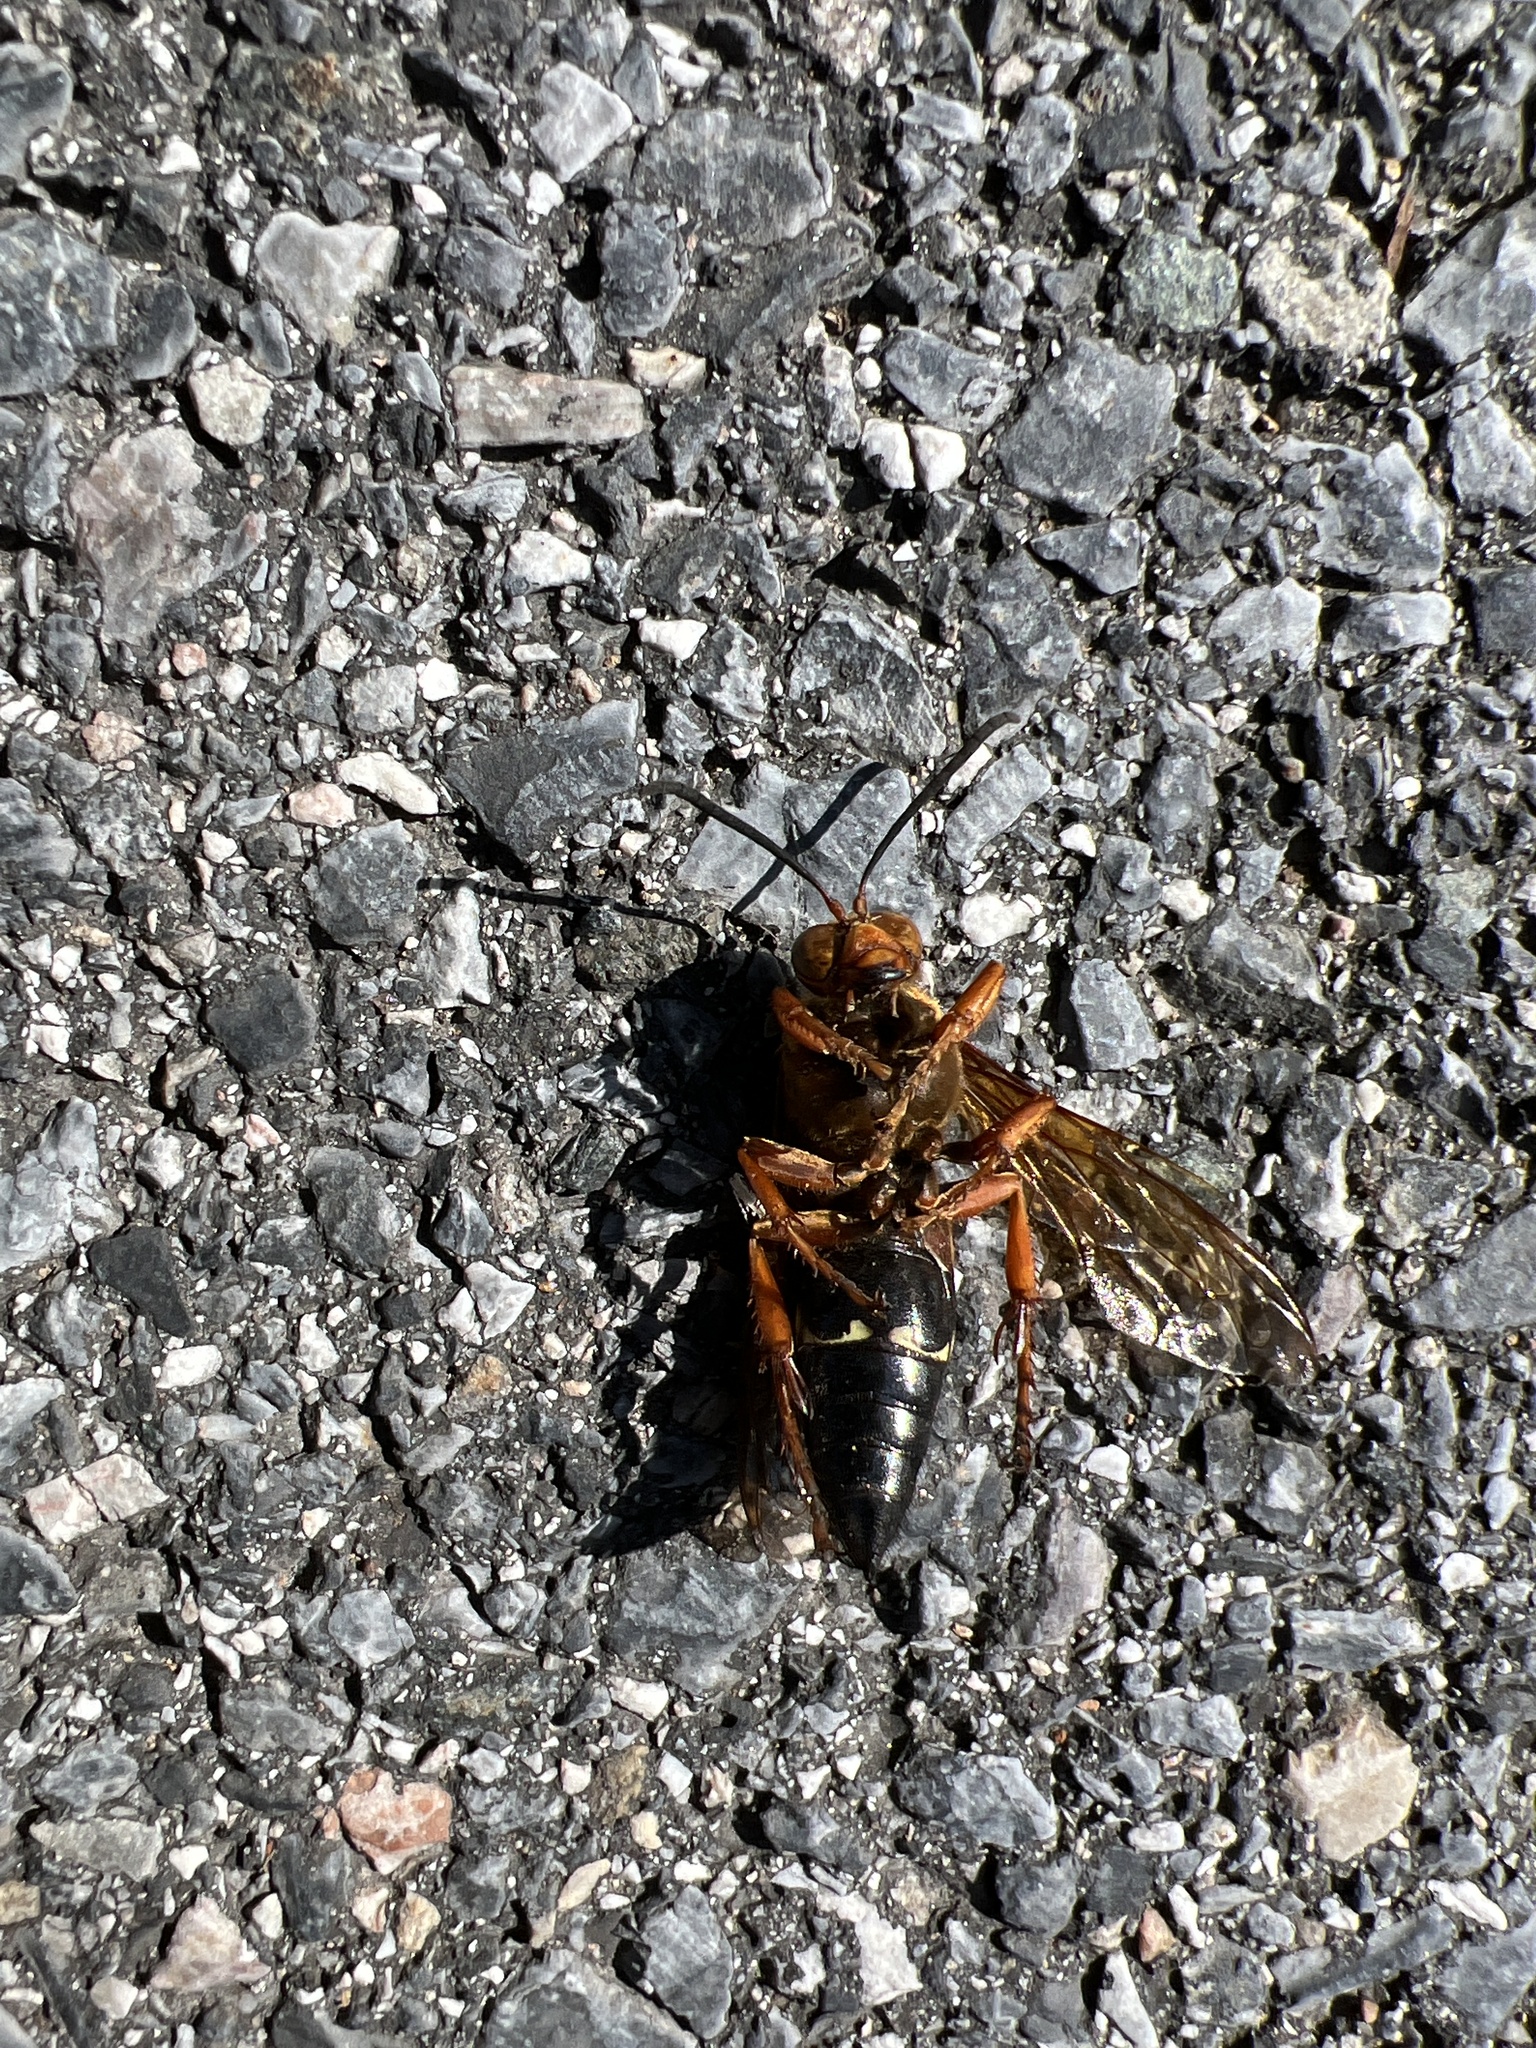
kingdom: Animalia
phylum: Arthropoda
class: Insecta
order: Hymenoptera
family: Crabronidae
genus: Sphecius
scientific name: Sphecius speciosus
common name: Cicada killer
